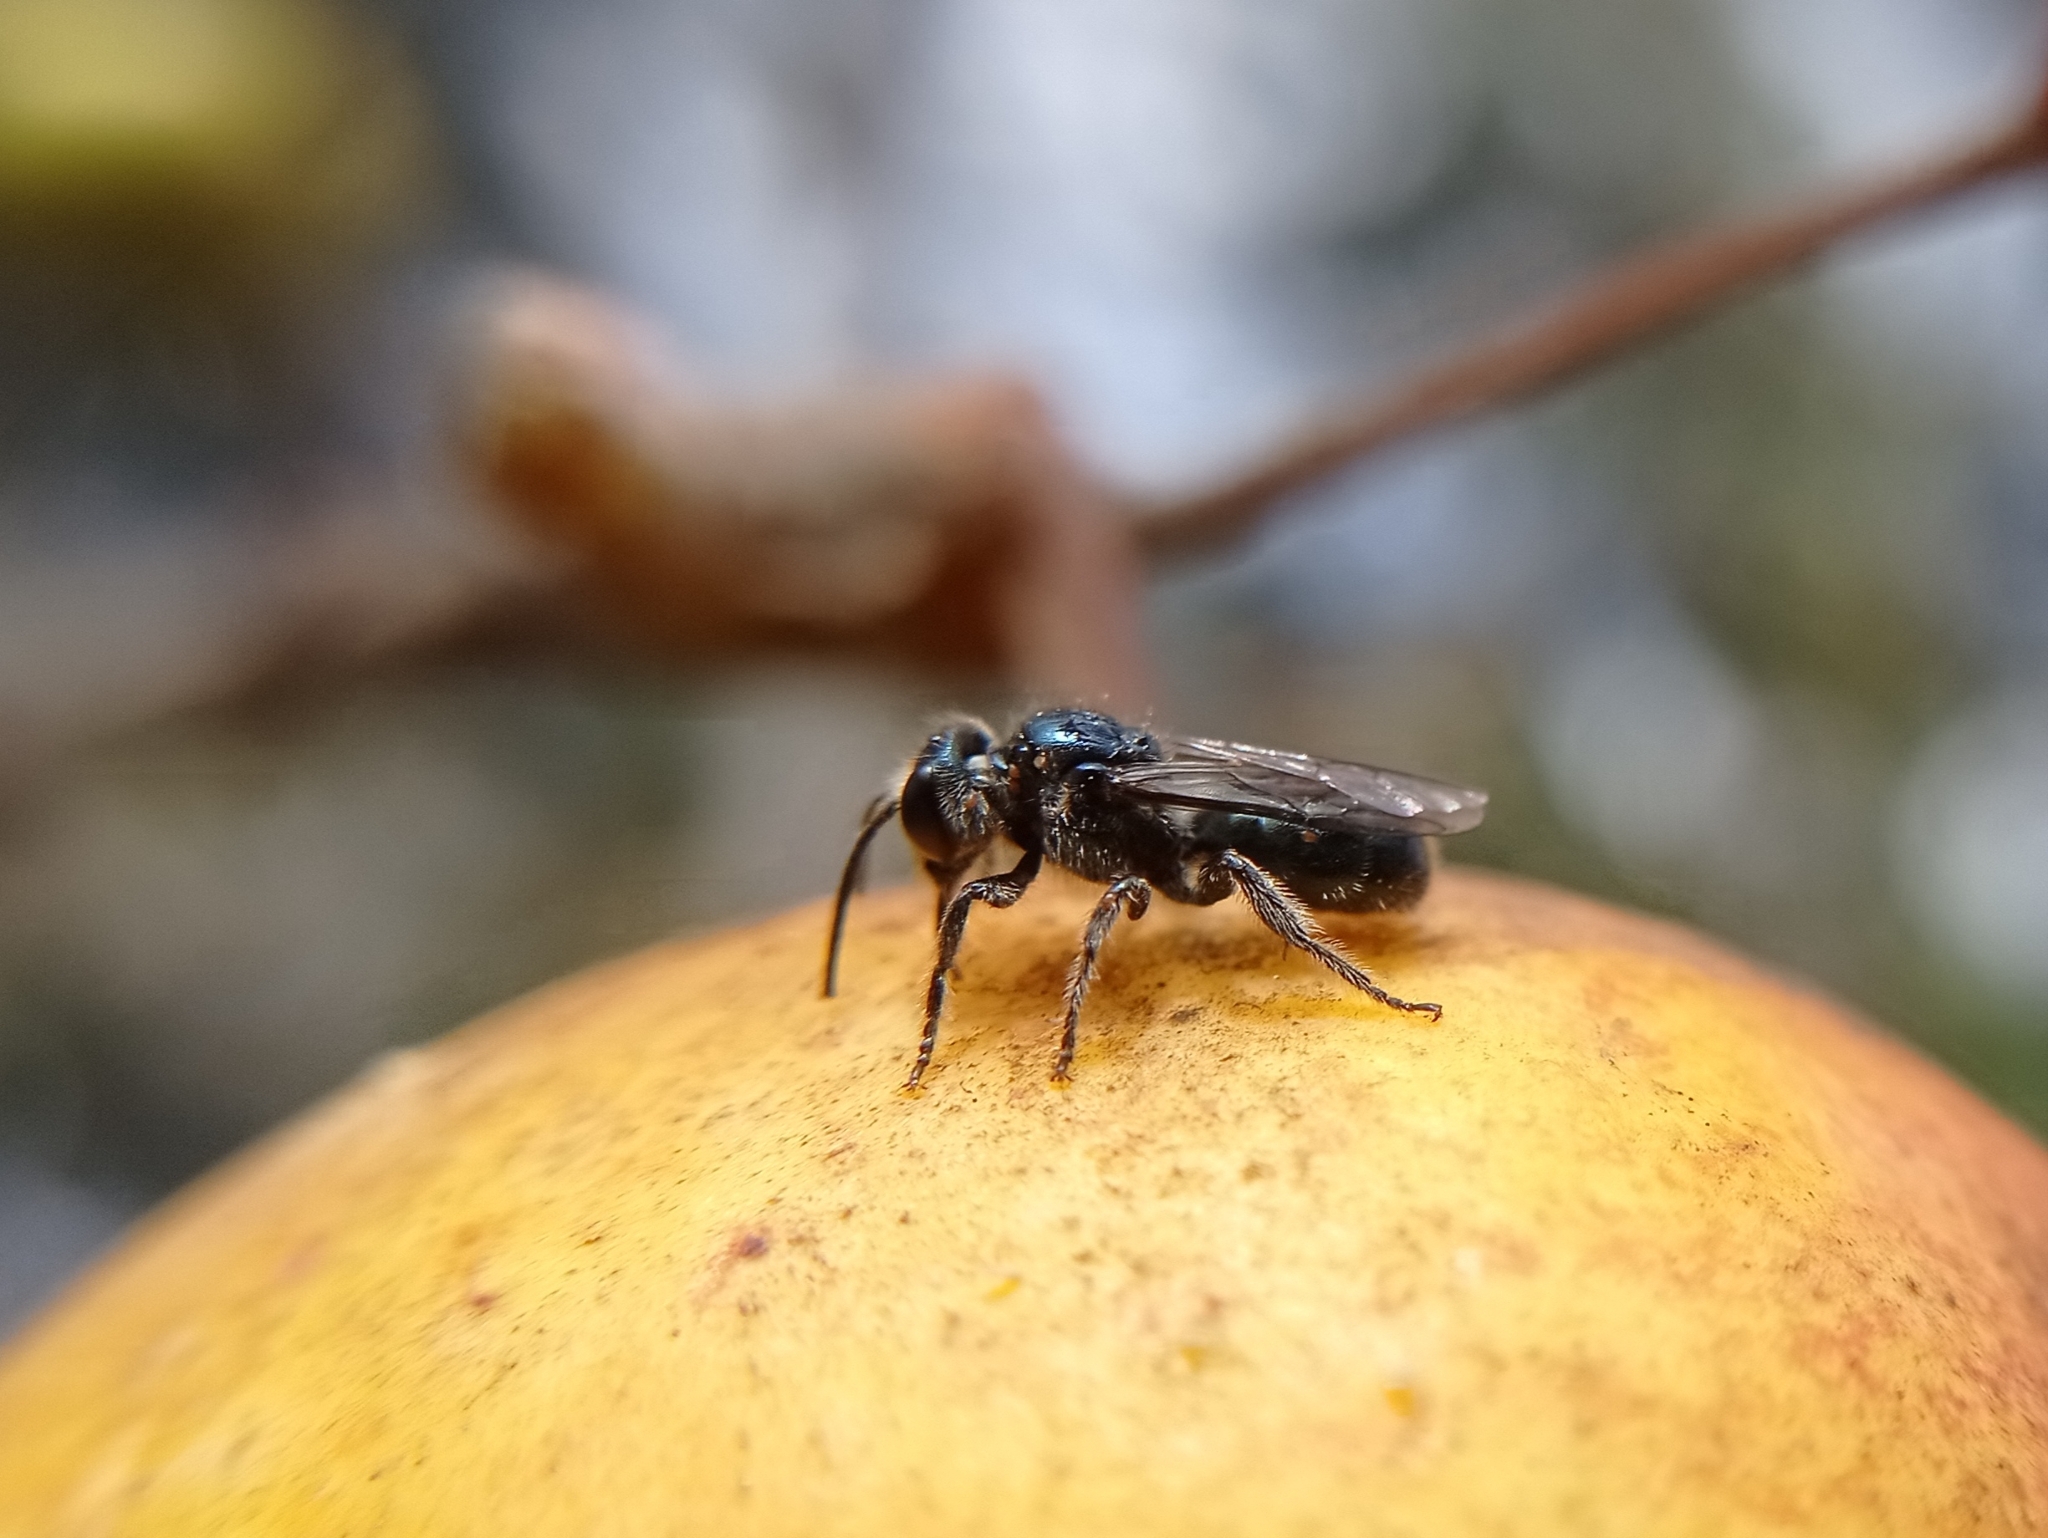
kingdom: Animalia
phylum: Arthropoda
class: Insecta
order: Hymenoptera
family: Apidae
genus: Manuelia
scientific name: Manuelia gayi
